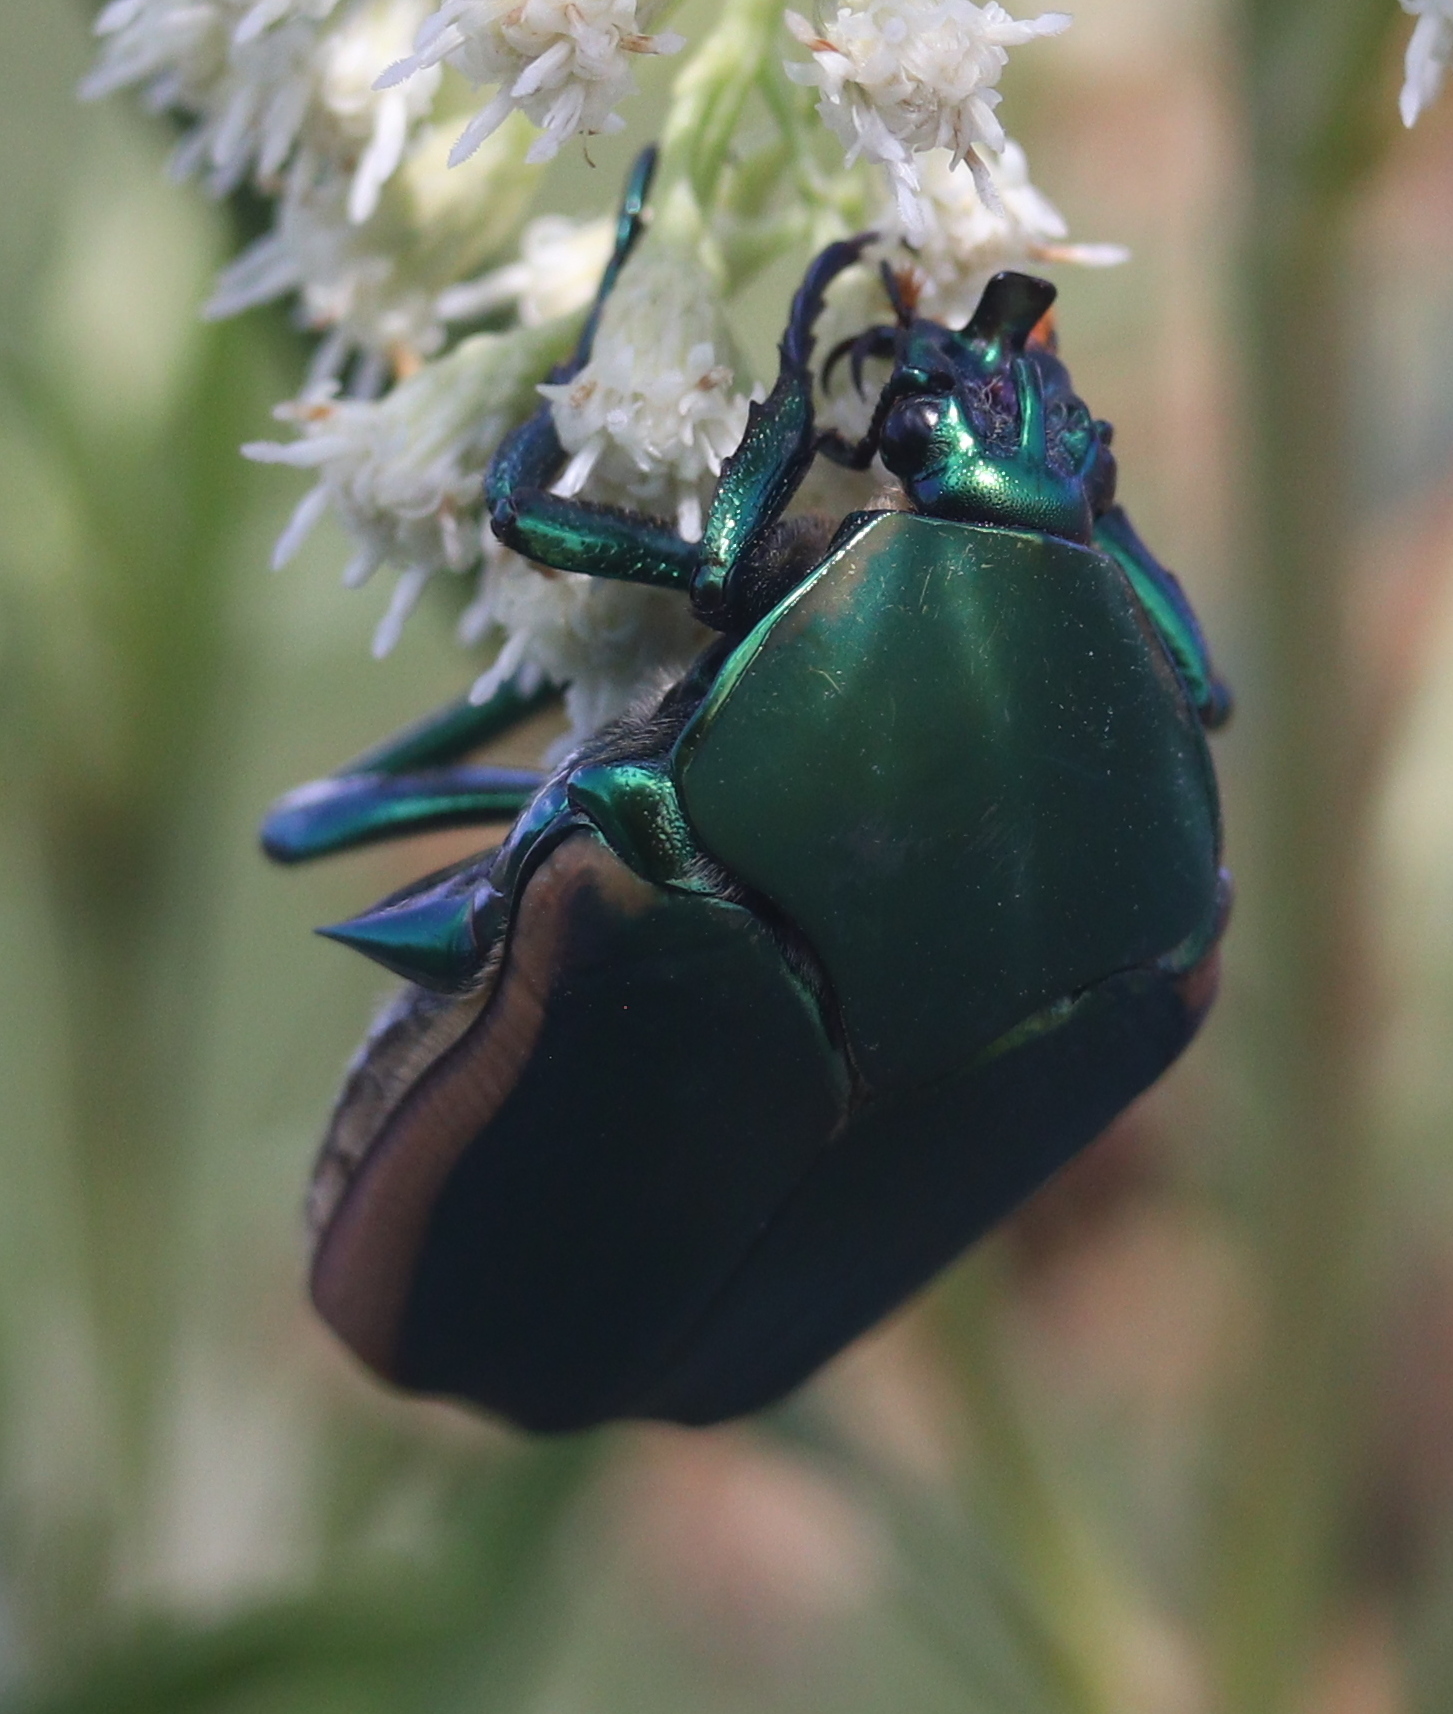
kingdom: Animalia
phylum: Arthropoda
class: Insecta
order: Coleoptera
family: Scarabaeidae
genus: Cotinis
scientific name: Cotinis mutabilis
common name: Figeater beetle
